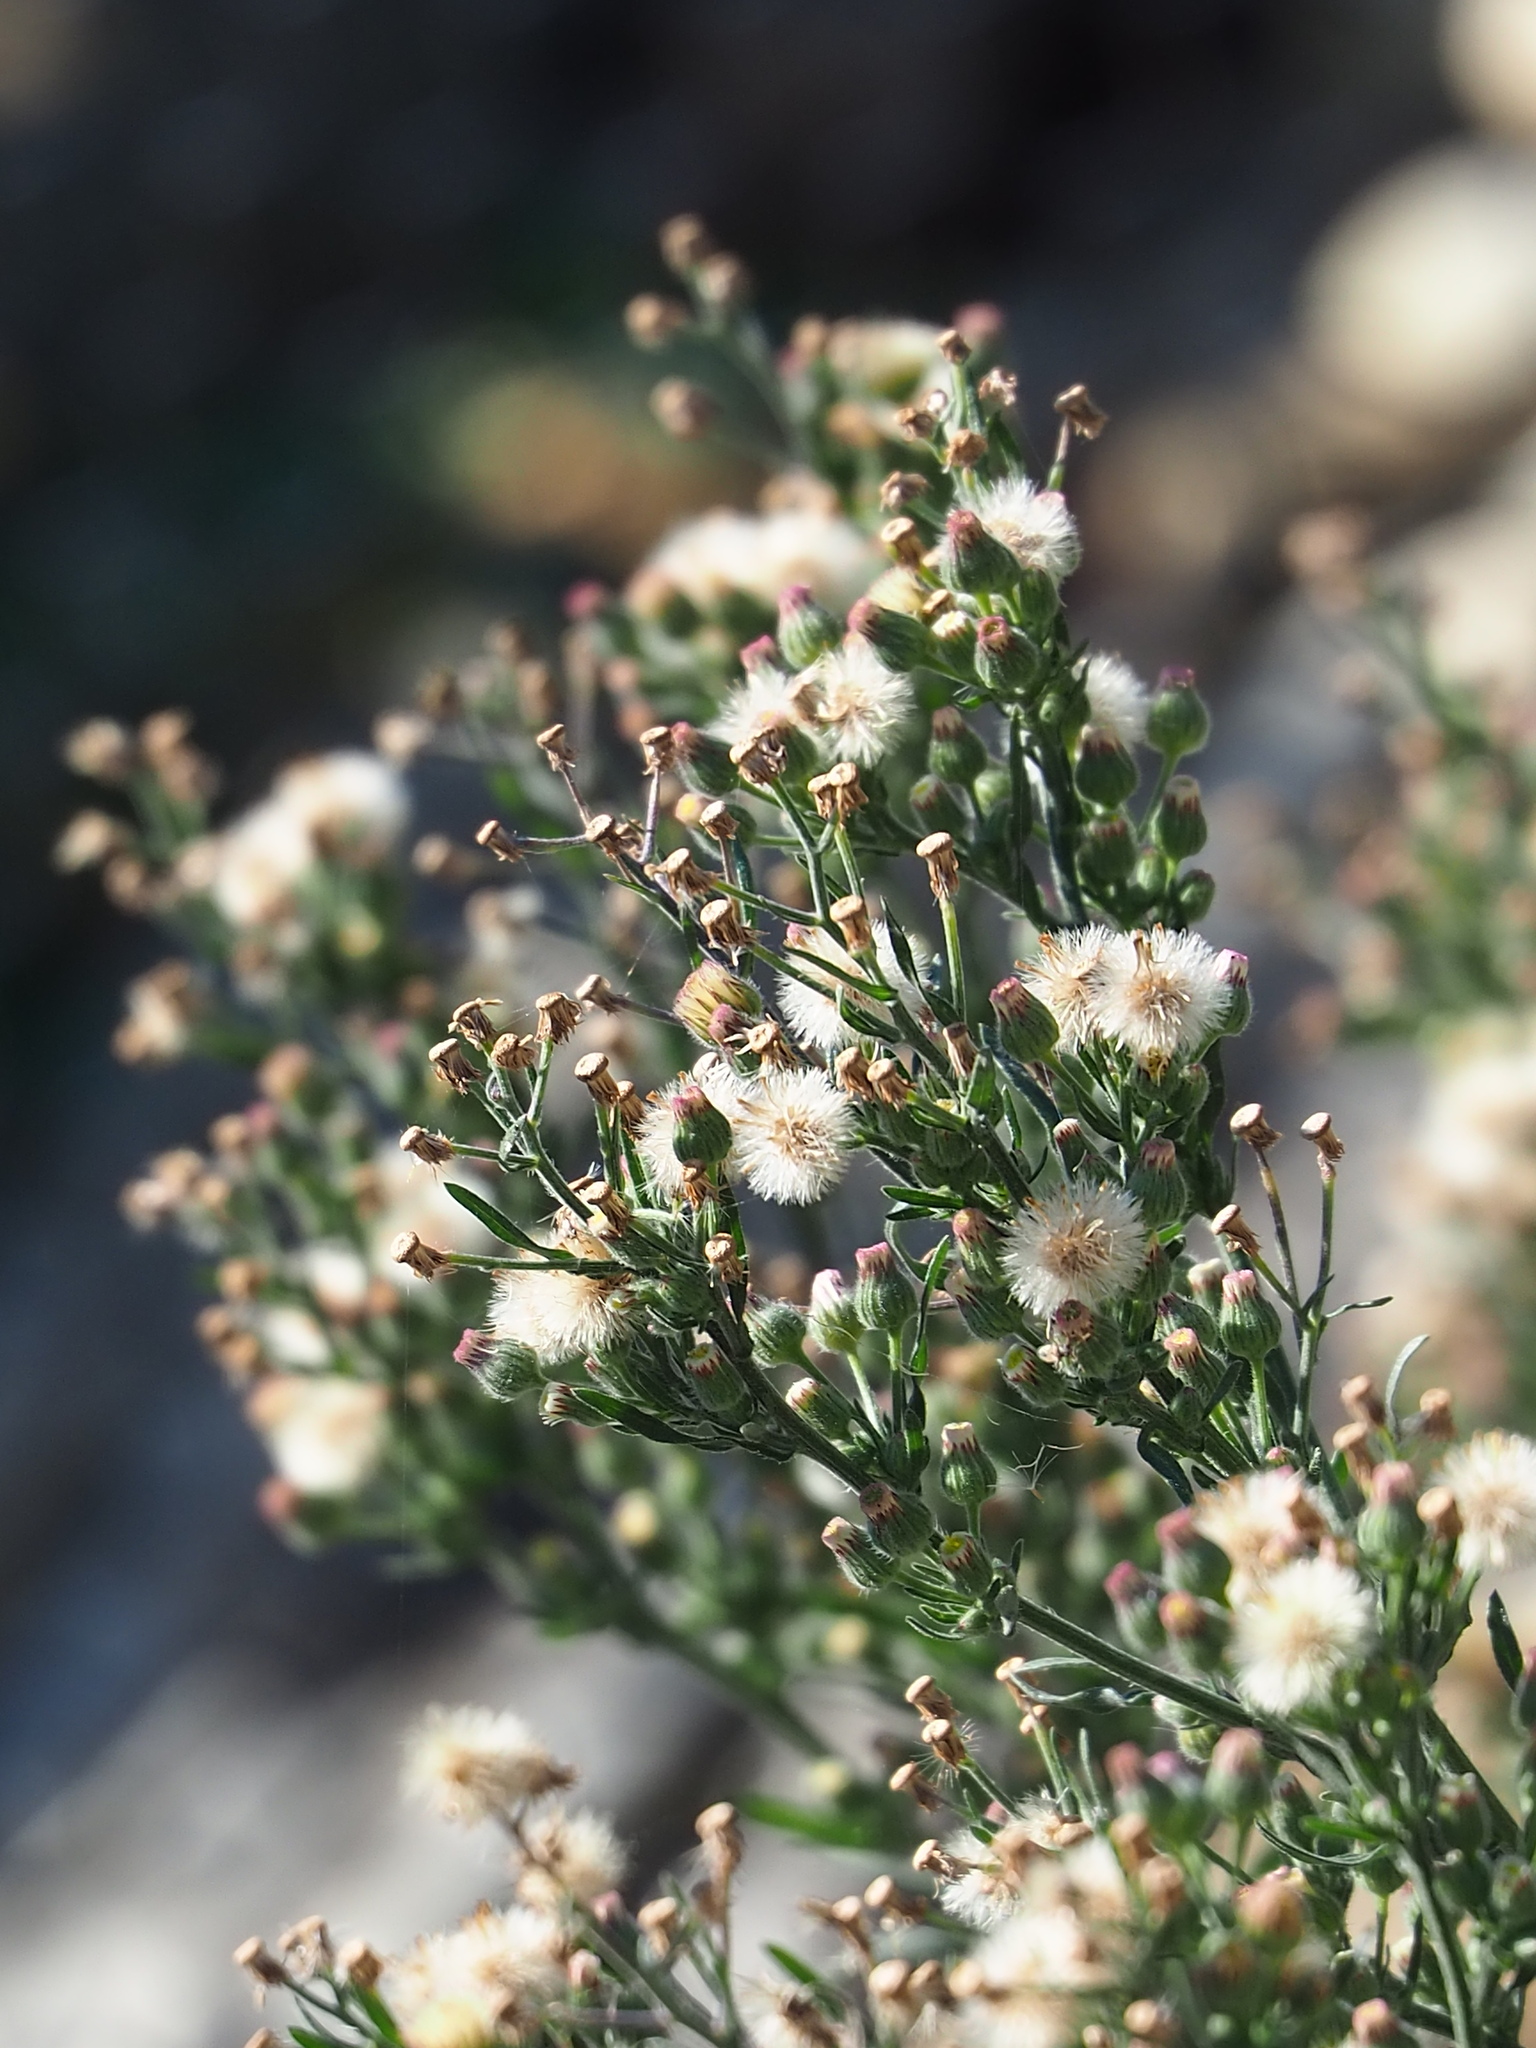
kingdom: Plantae
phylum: Tracheophyta
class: Magnoliopsida
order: Asterales
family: Asteraceae
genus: Erigeron
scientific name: Erigeron bonariensis
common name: Argentine fleabane
